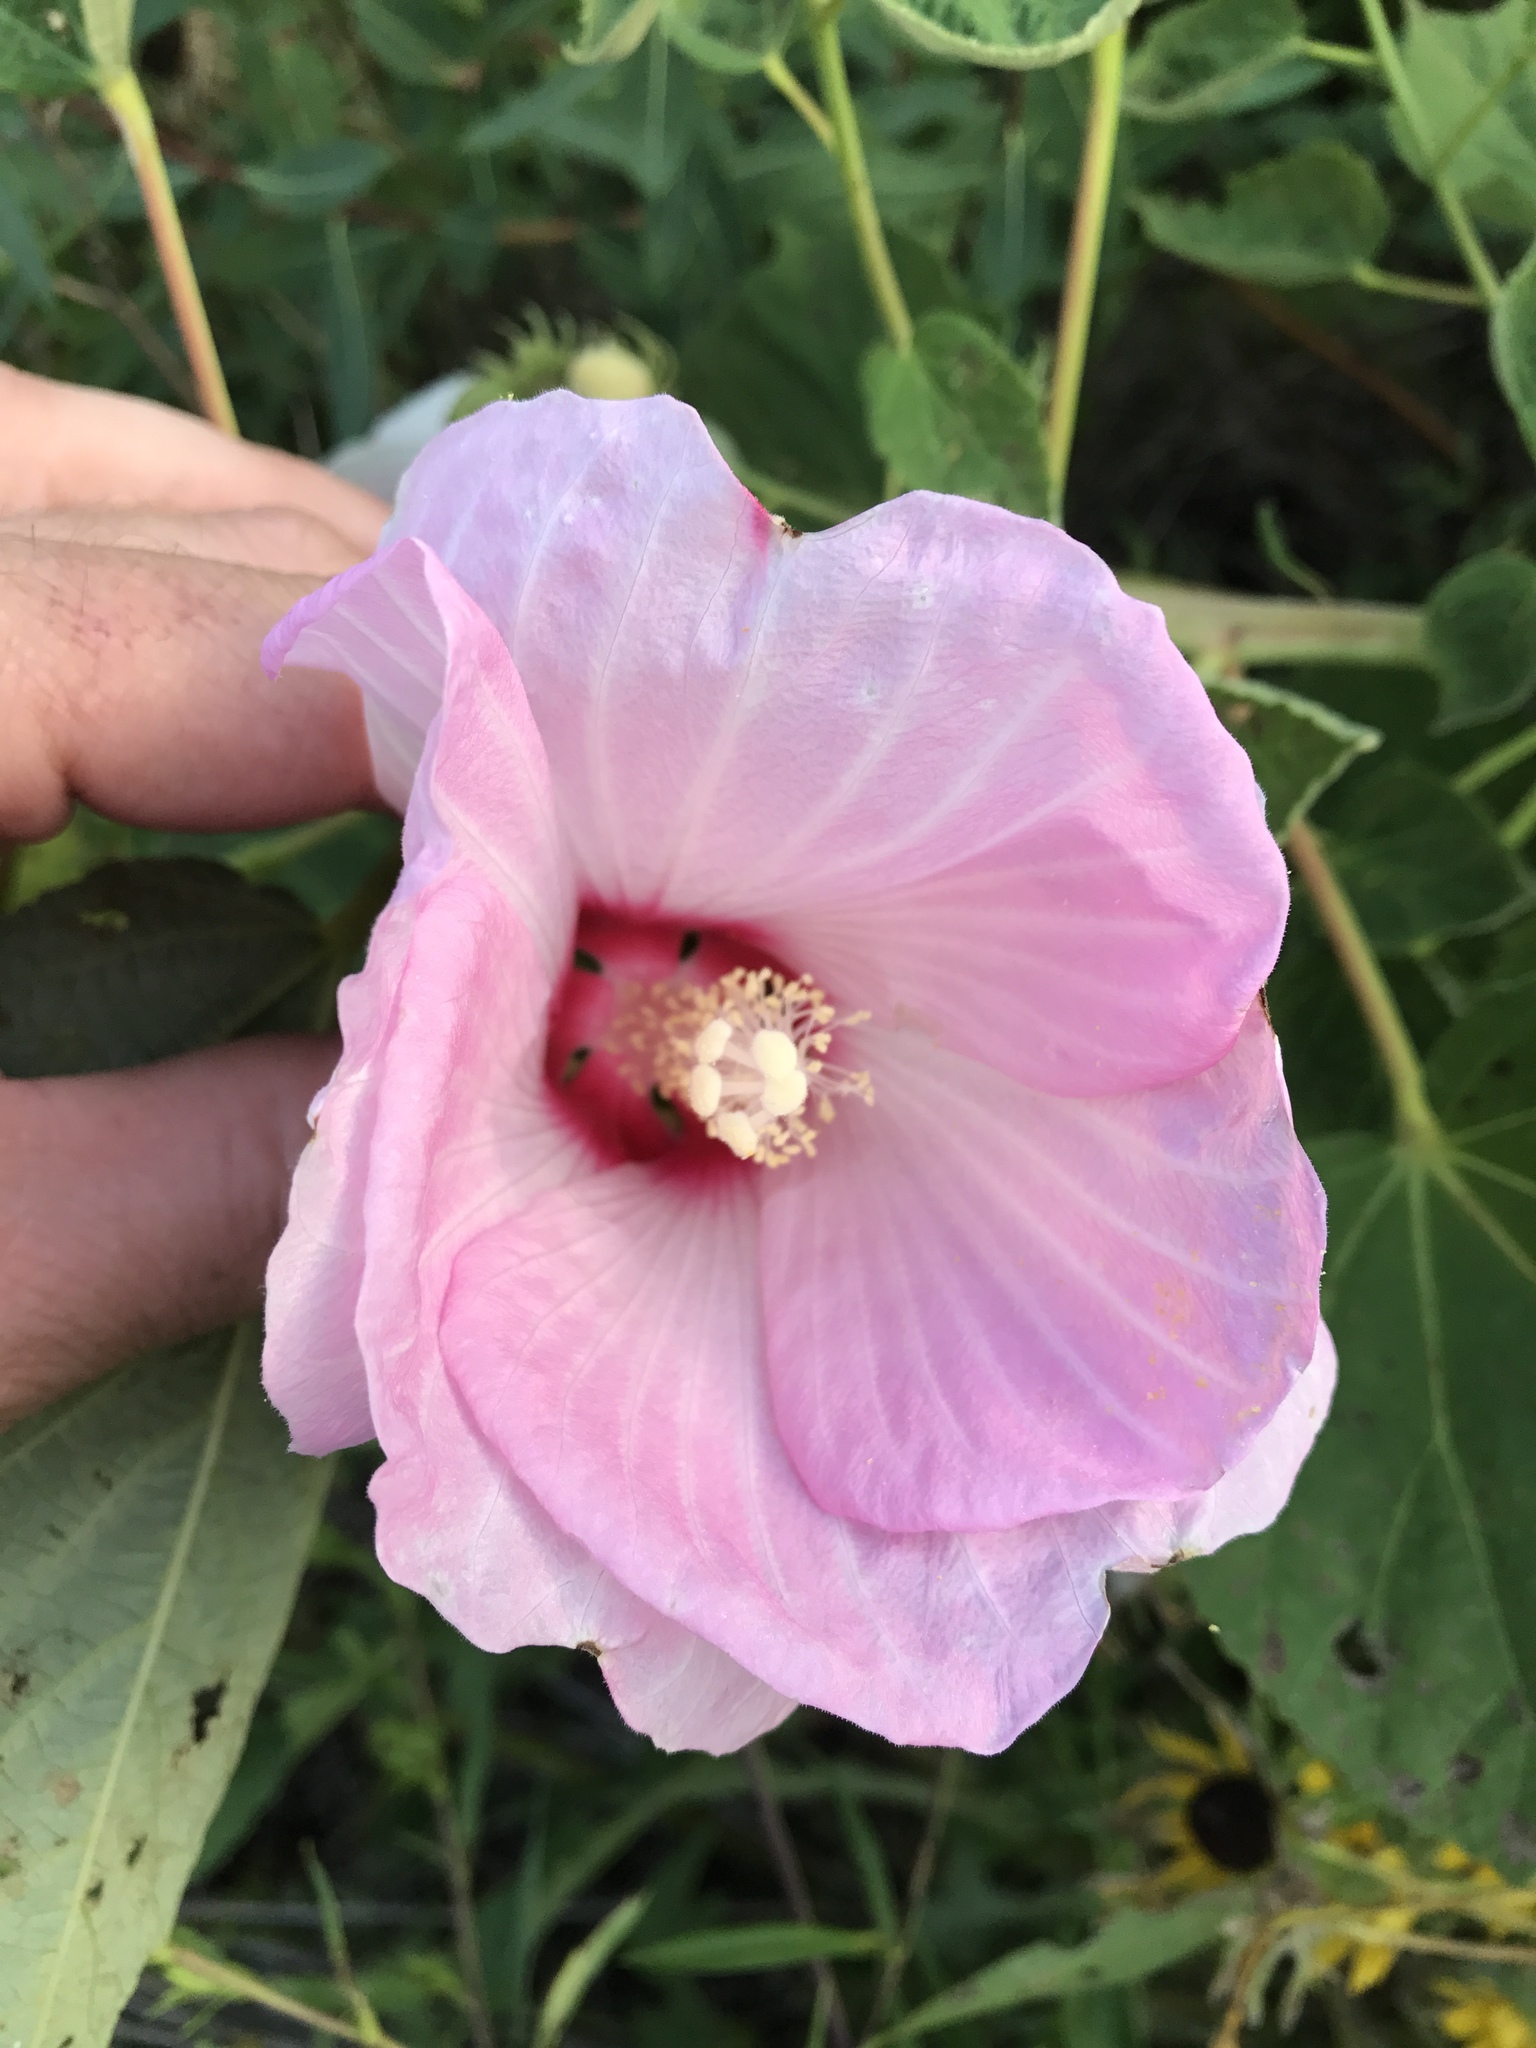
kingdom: Plantae
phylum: Tracheophyta
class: Magnoliopsida
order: Malvales
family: Malvaceae
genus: Hibiscus
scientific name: Hibiscus moscheutos
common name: Common rose-mallow
